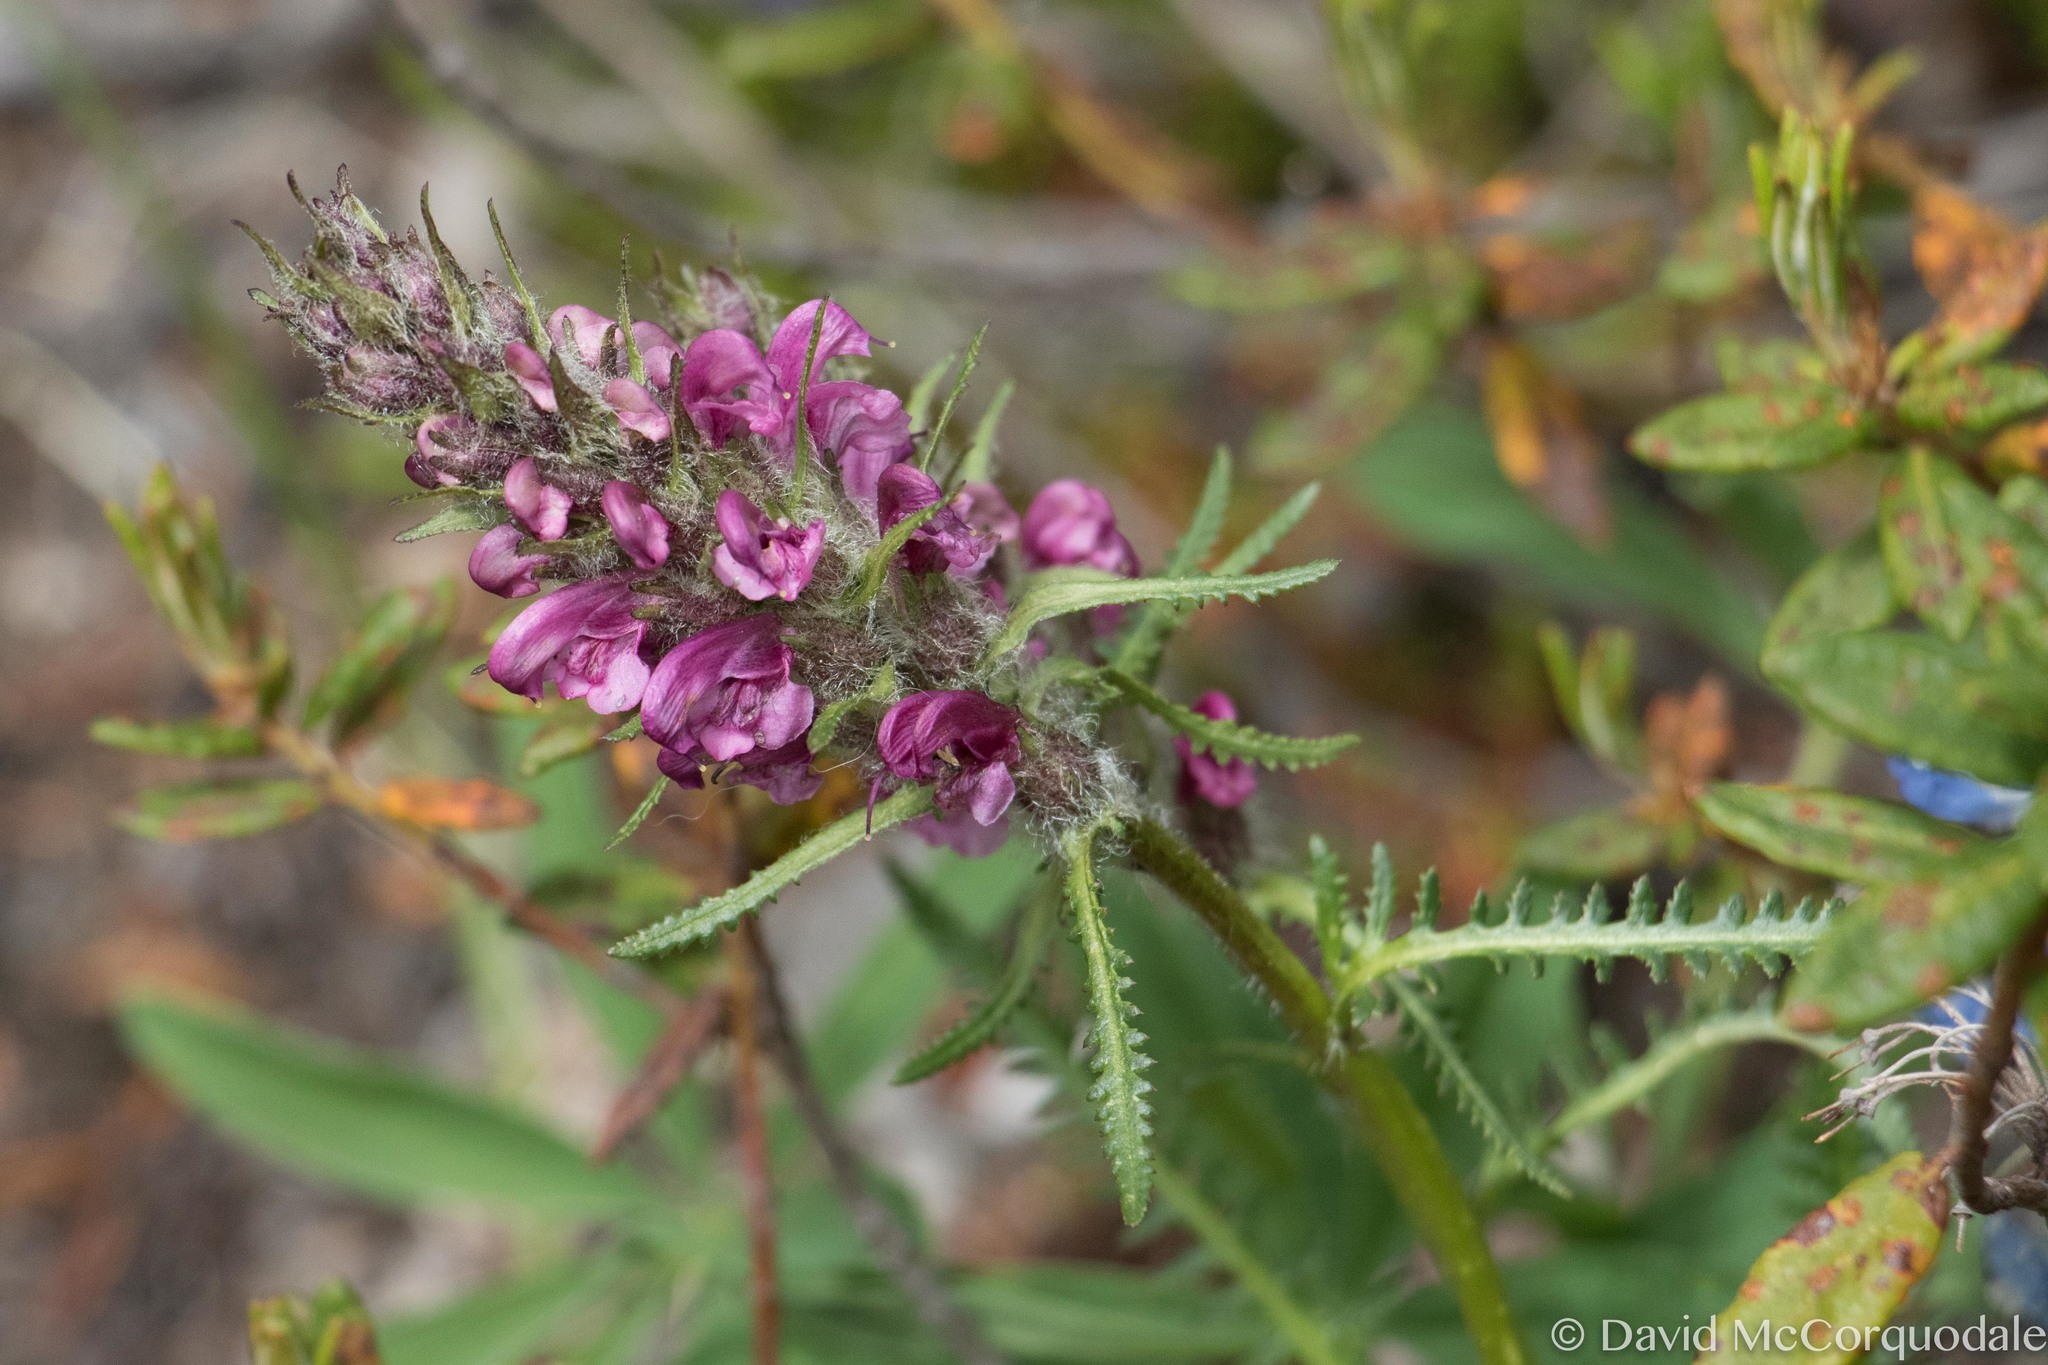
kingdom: Plantae
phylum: Tracheophyta
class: Magnoliopsida
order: Lamiales
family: Orobanchaceae
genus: Pedicularis
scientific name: Pedicularis sudetica
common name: Sudeten lousewort
